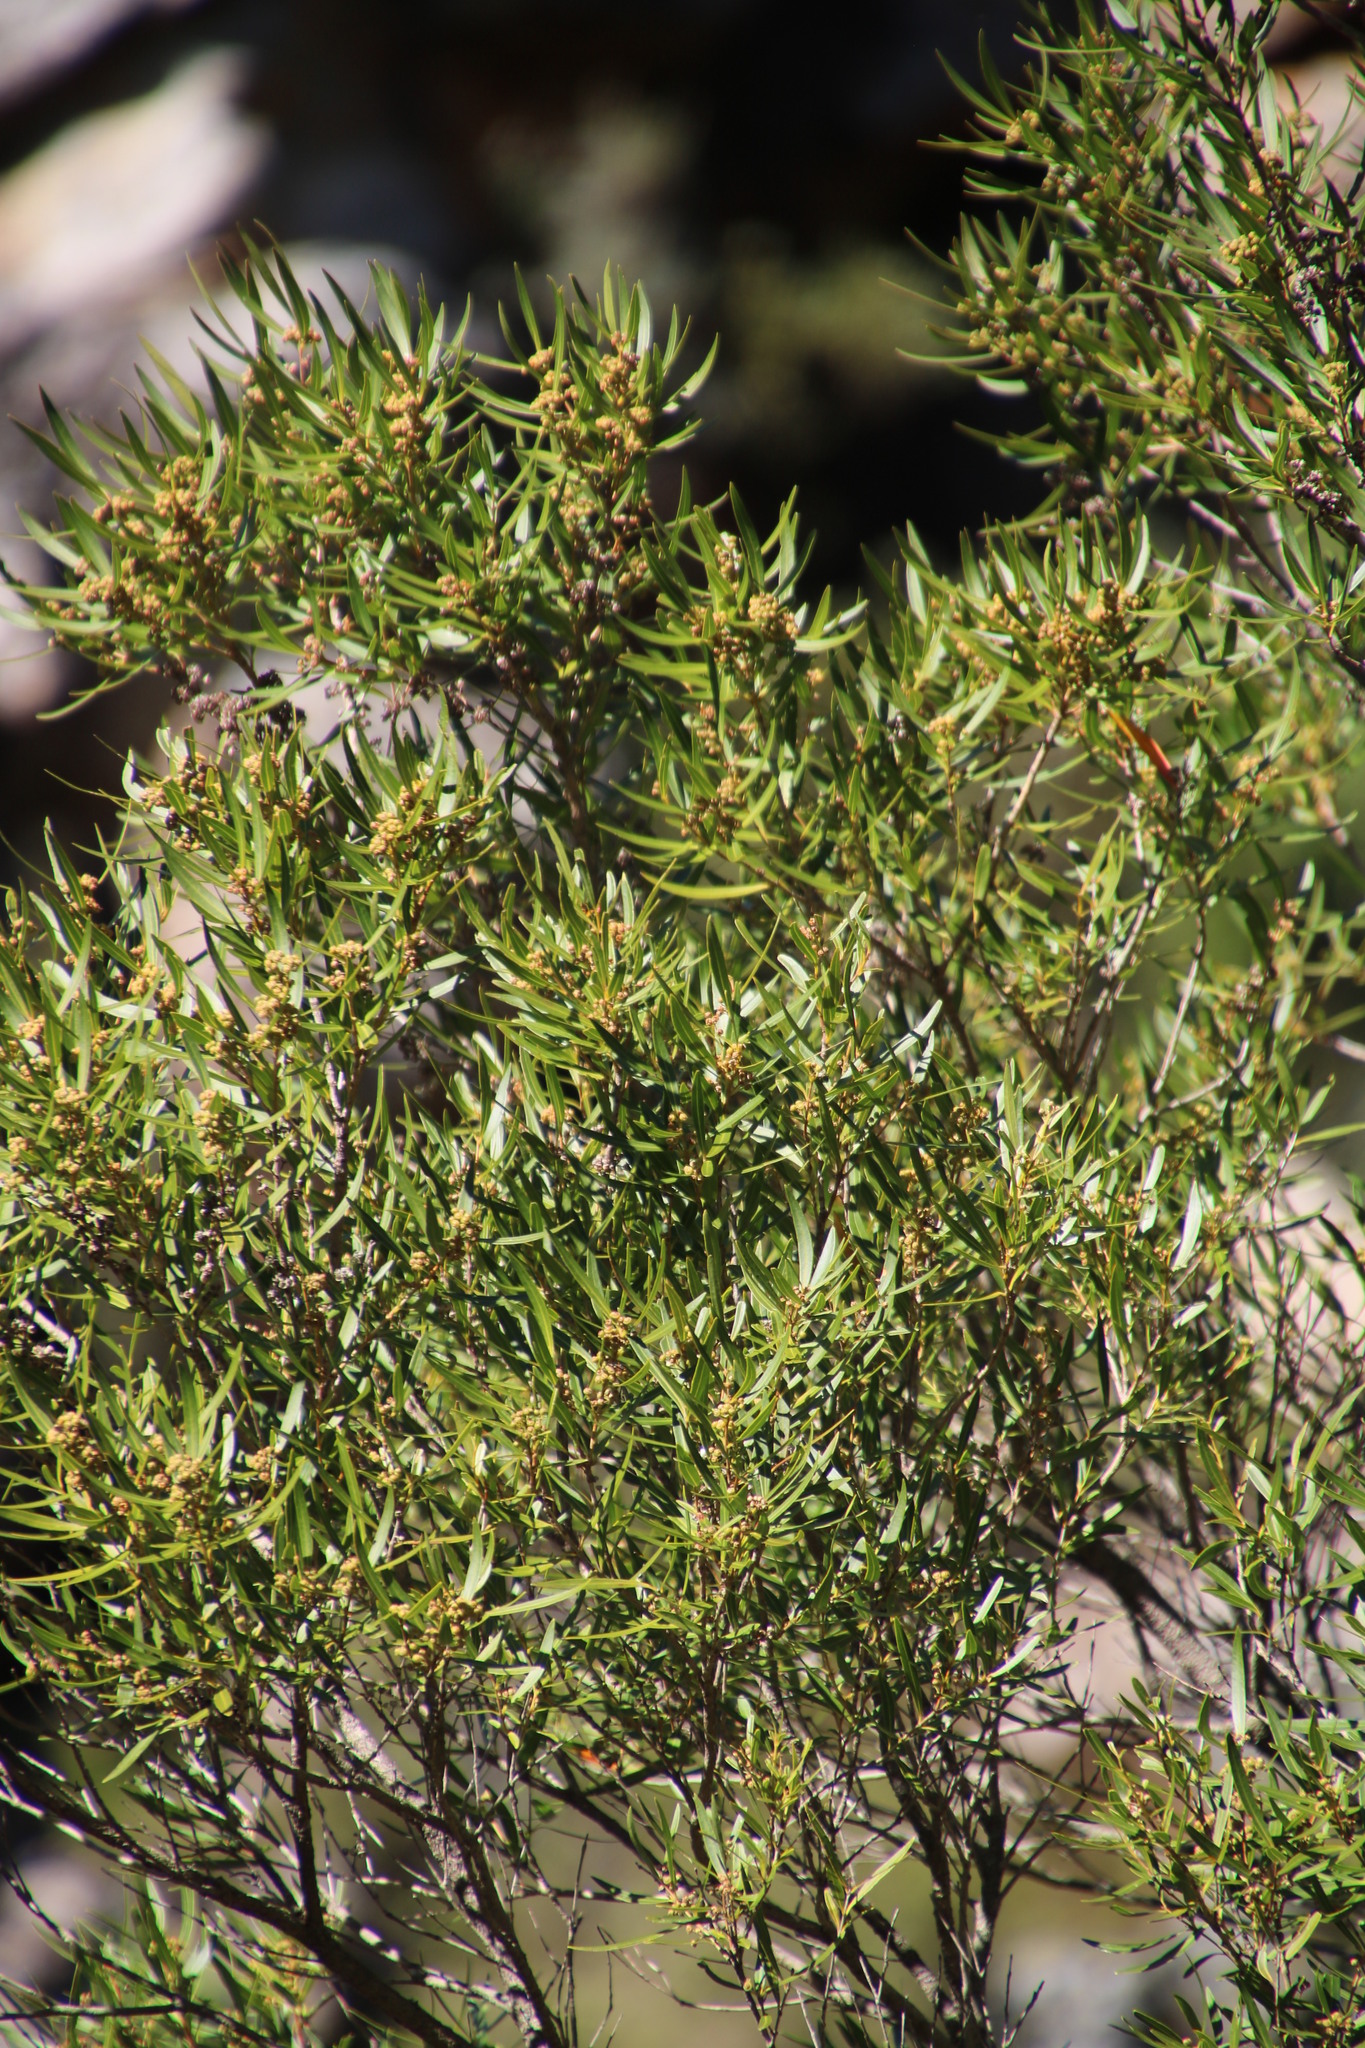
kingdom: Plantae
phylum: Tracheophyta
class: Magnoliopsida
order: Myrtales
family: Myrtaceae
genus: Callistemon
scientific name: Callistemon lanceolatus
